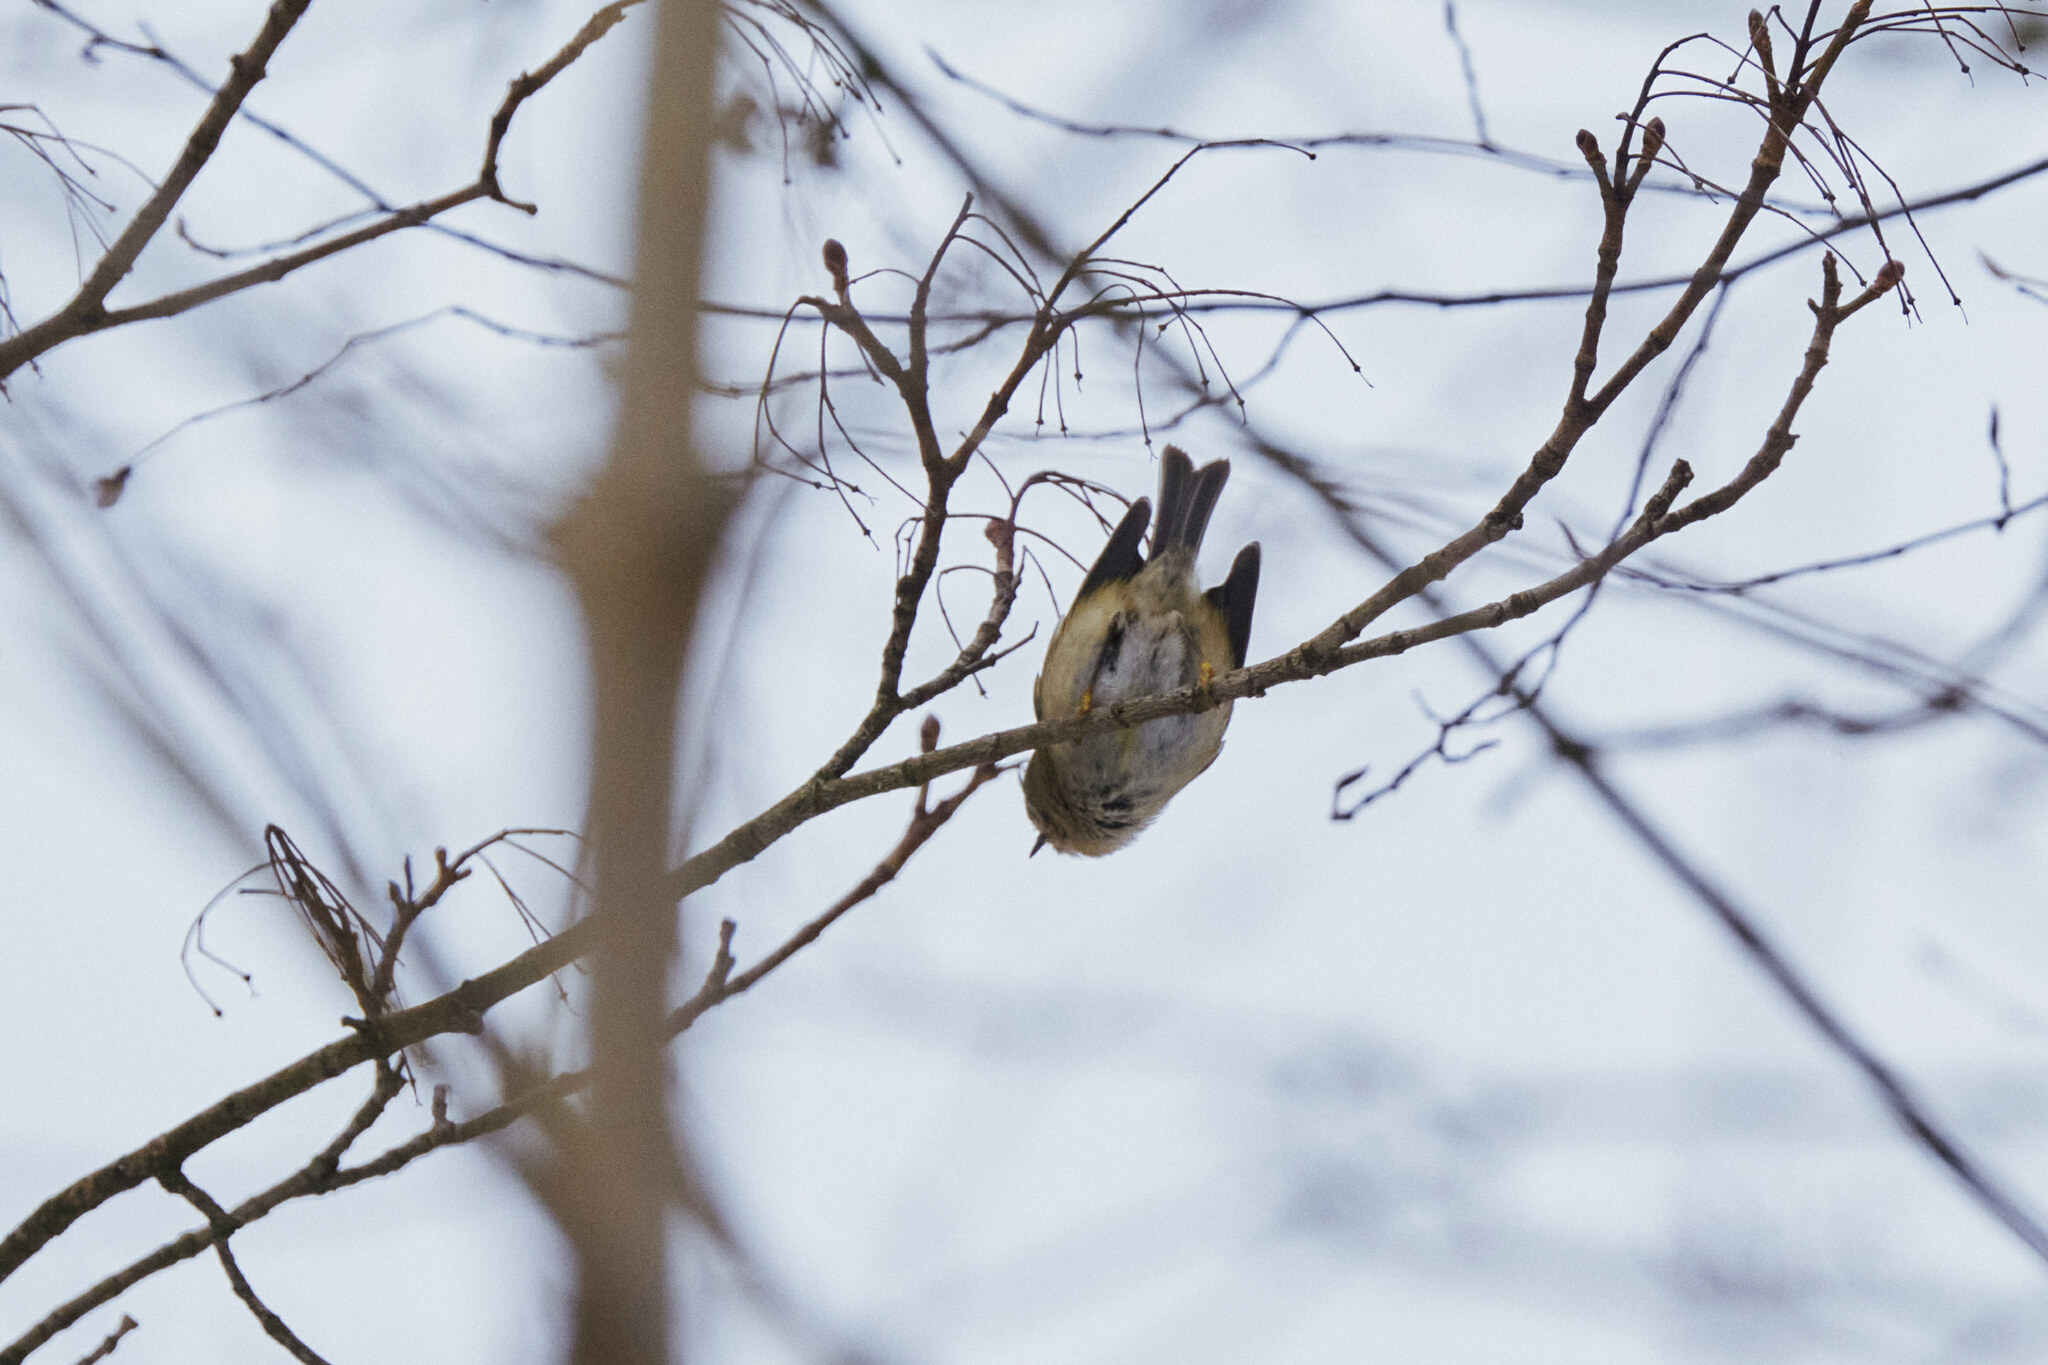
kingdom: Animalia
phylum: Chordata
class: Aves
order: Passeriformes
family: Regulidae
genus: Regulus
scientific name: Regulus regulus
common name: Goldcrest
